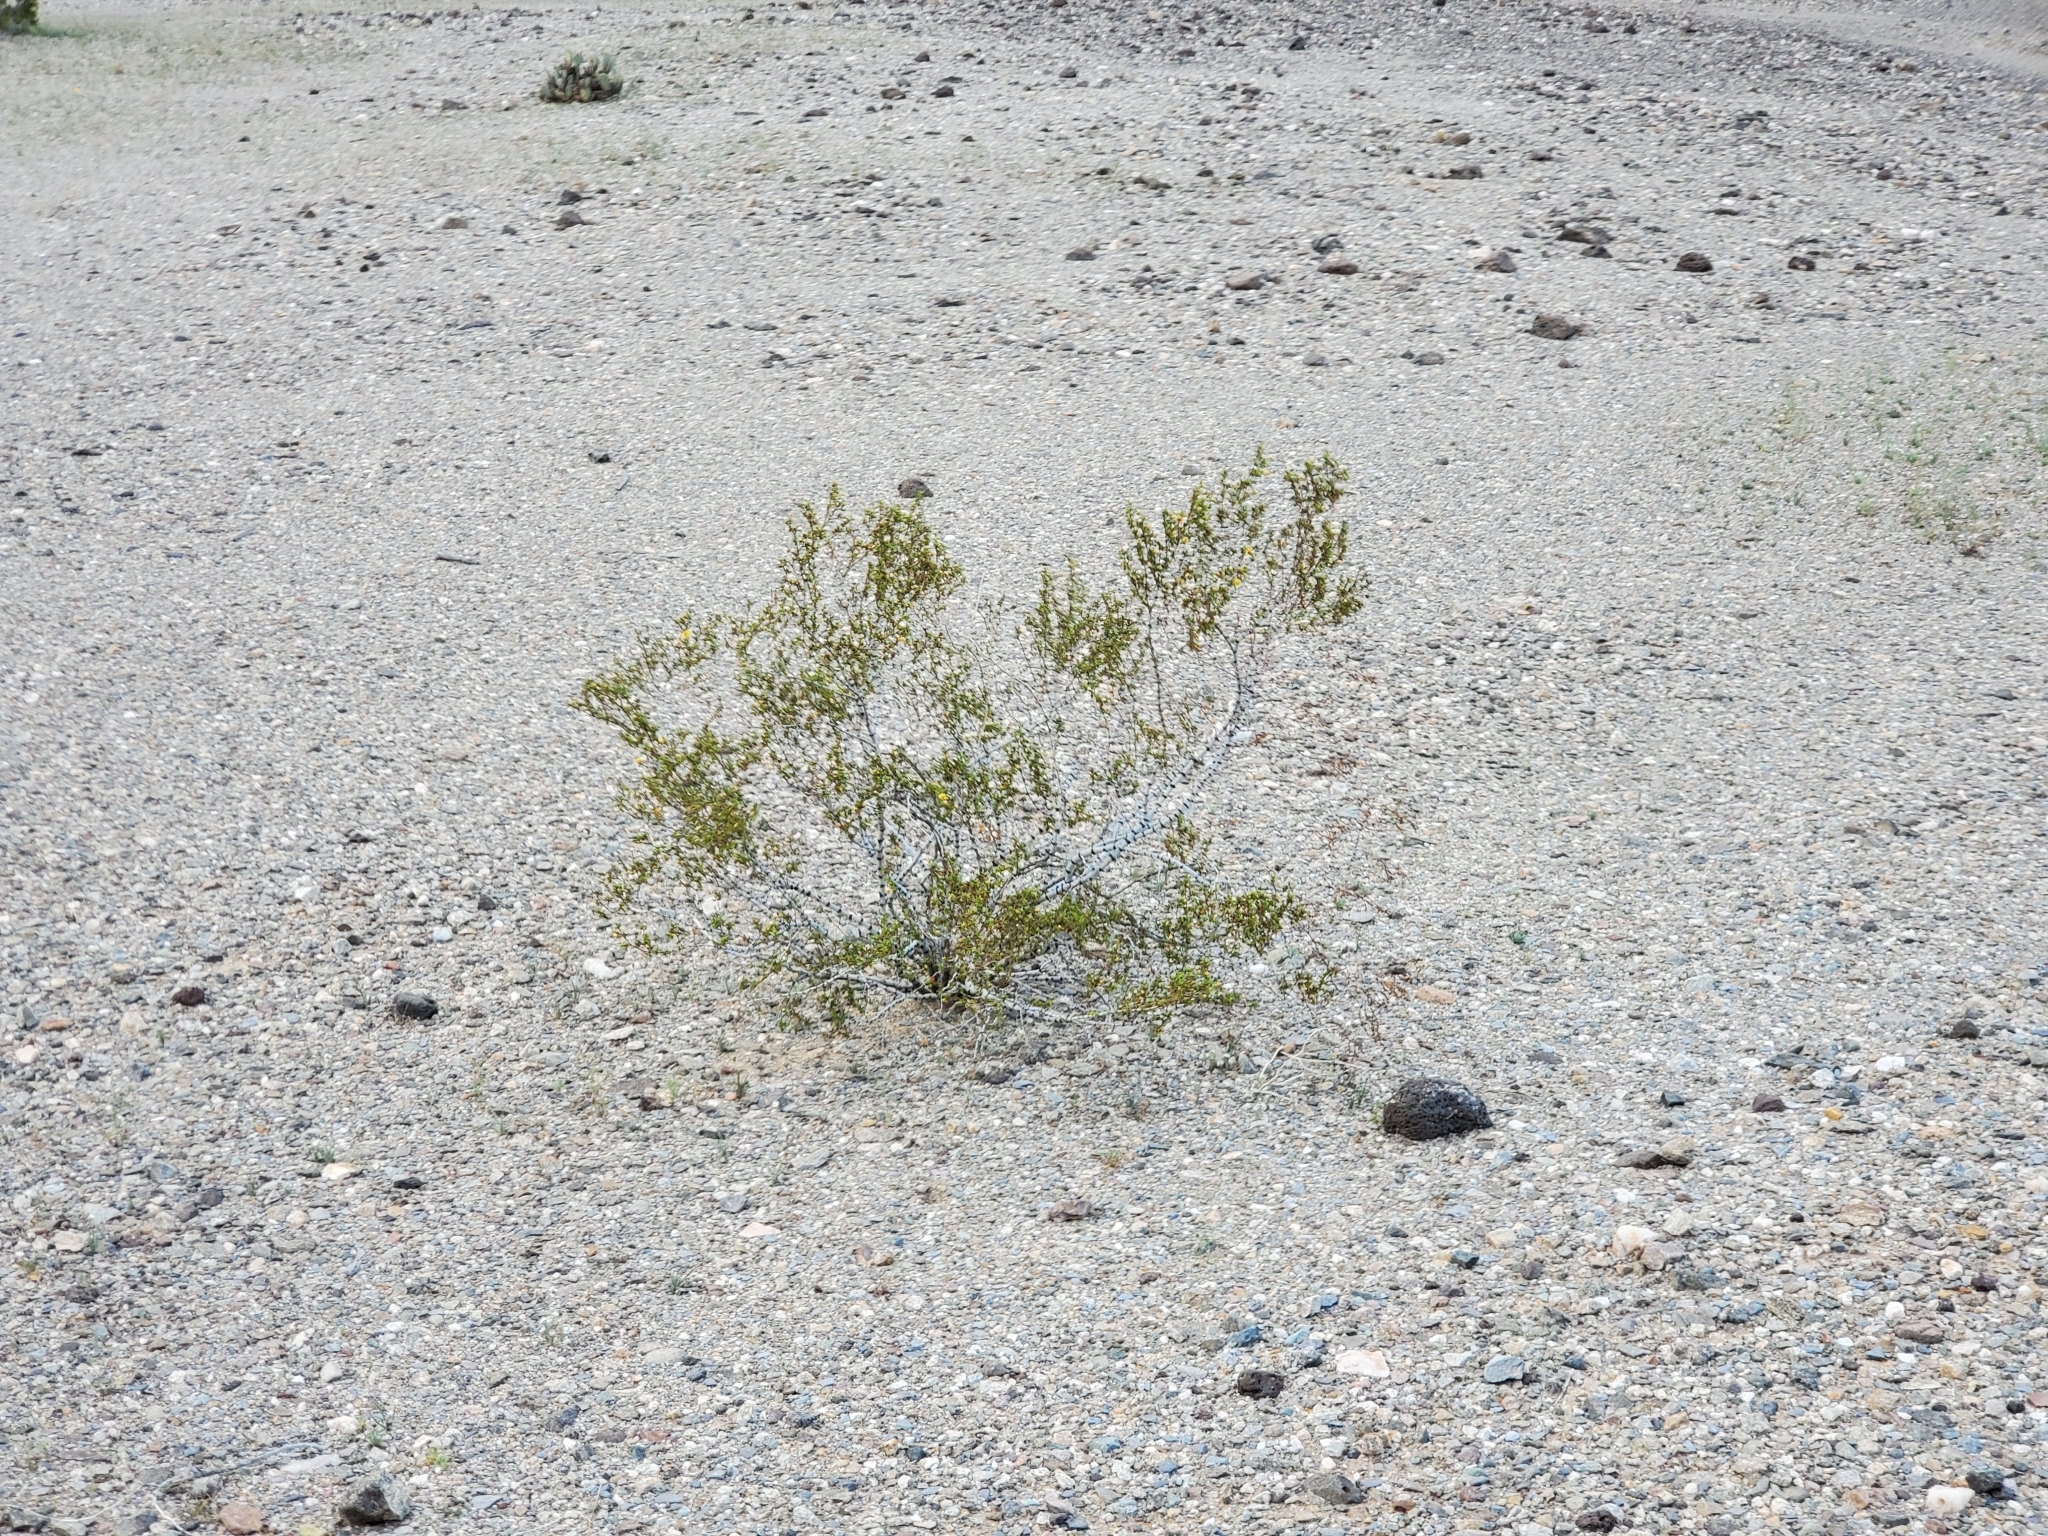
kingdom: Plantae
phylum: Tracheophyta
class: Magnoliopsida
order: Zygophyllales
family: Zygophyllaceae
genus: Larrea
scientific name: Larrea tridentata
